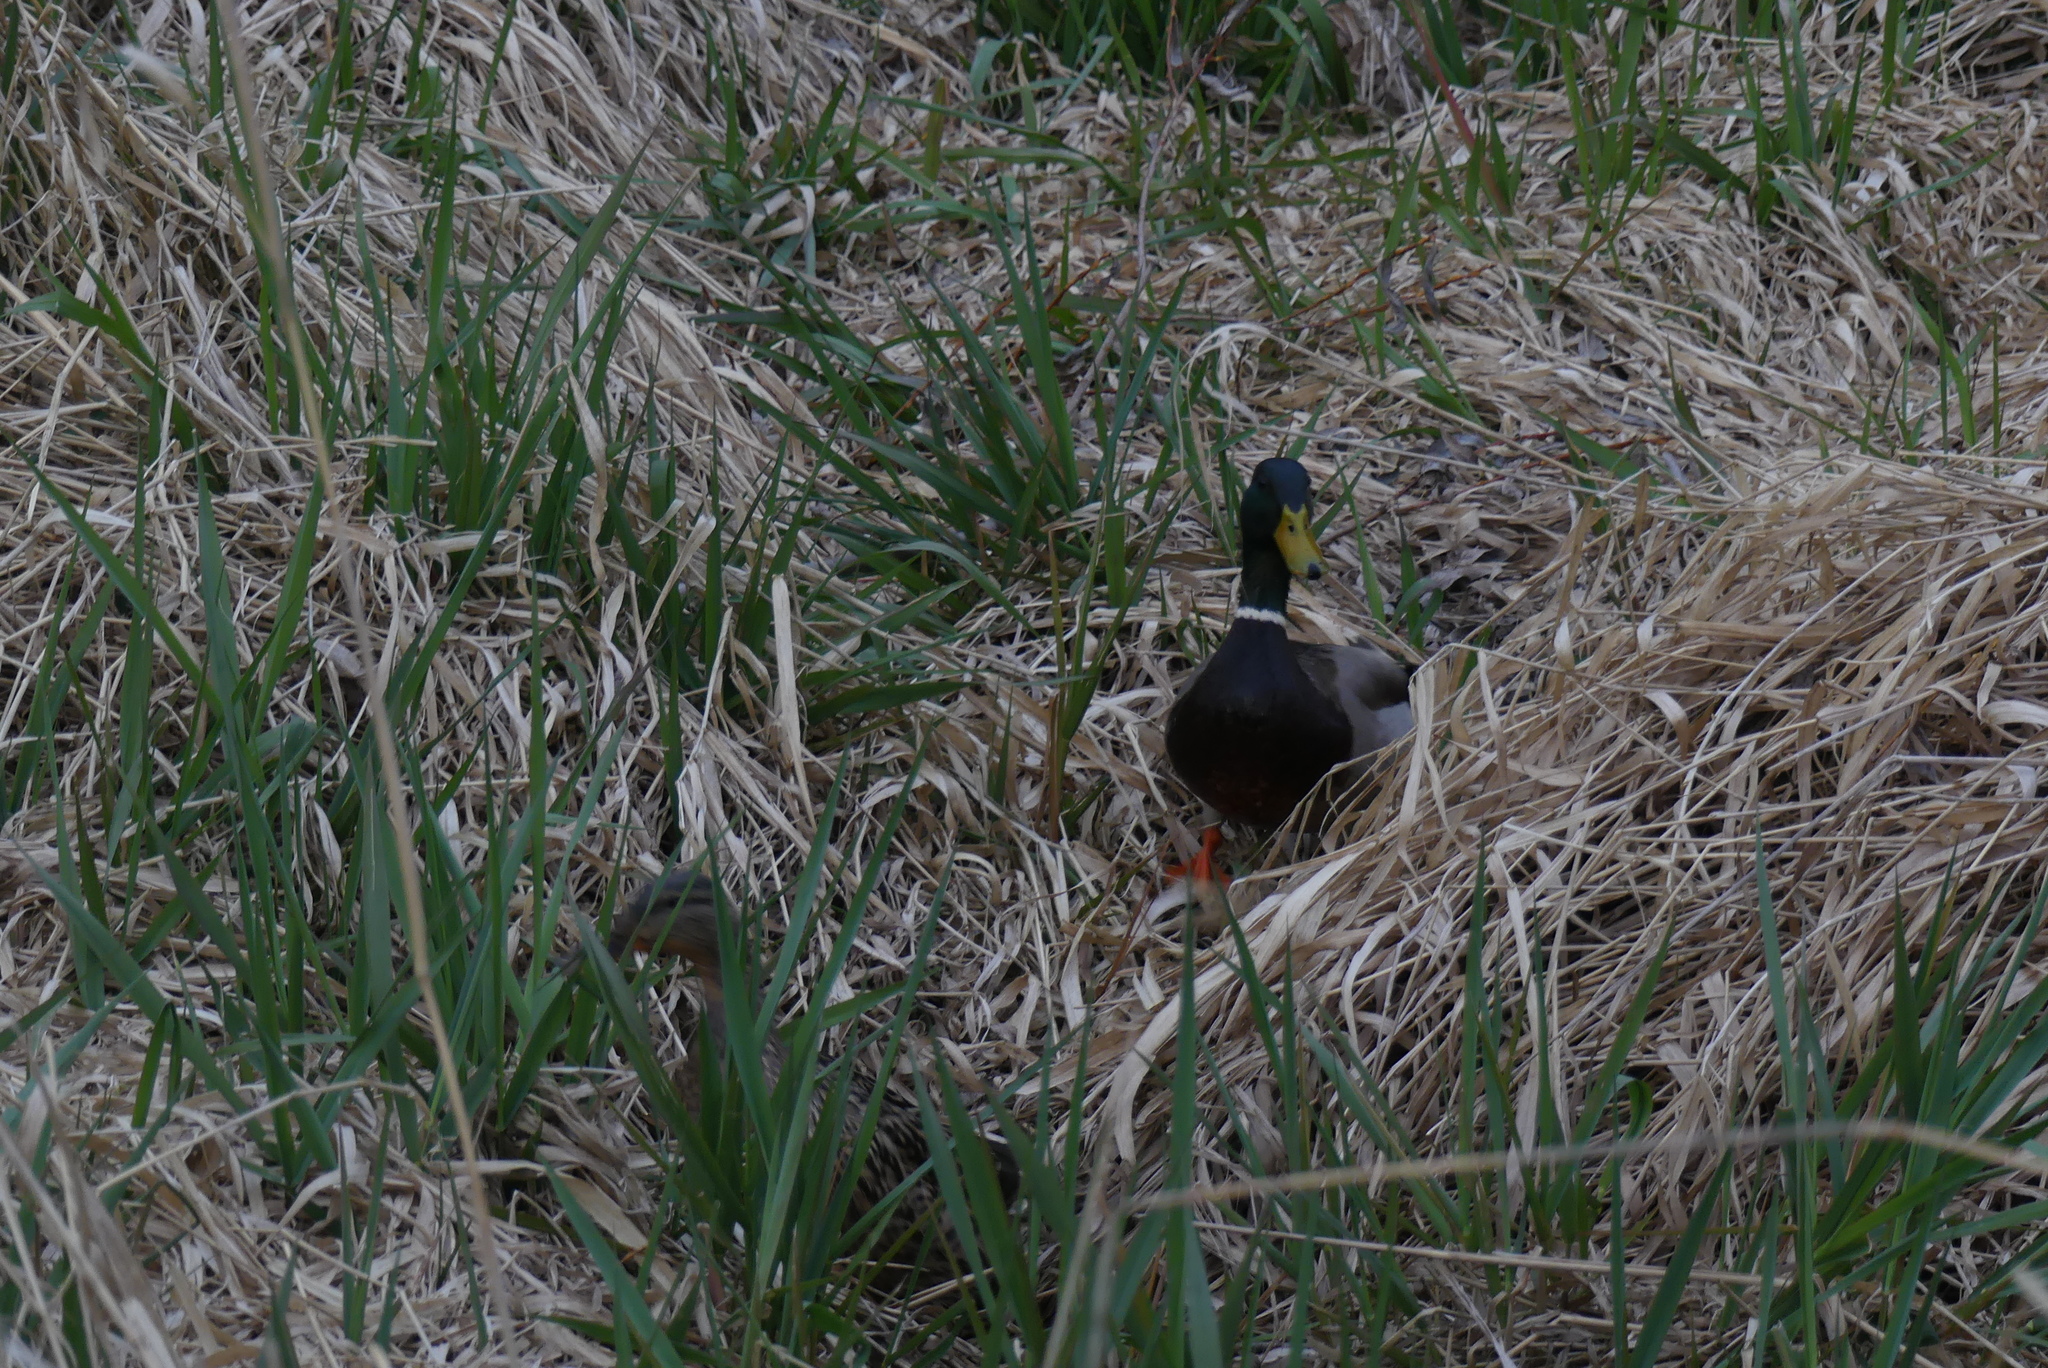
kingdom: Animalia
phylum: Chordata
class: Aves
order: Anseriformes
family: Anatidae
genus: Anas
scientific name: Anas platyrhynchos
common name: Mallard
